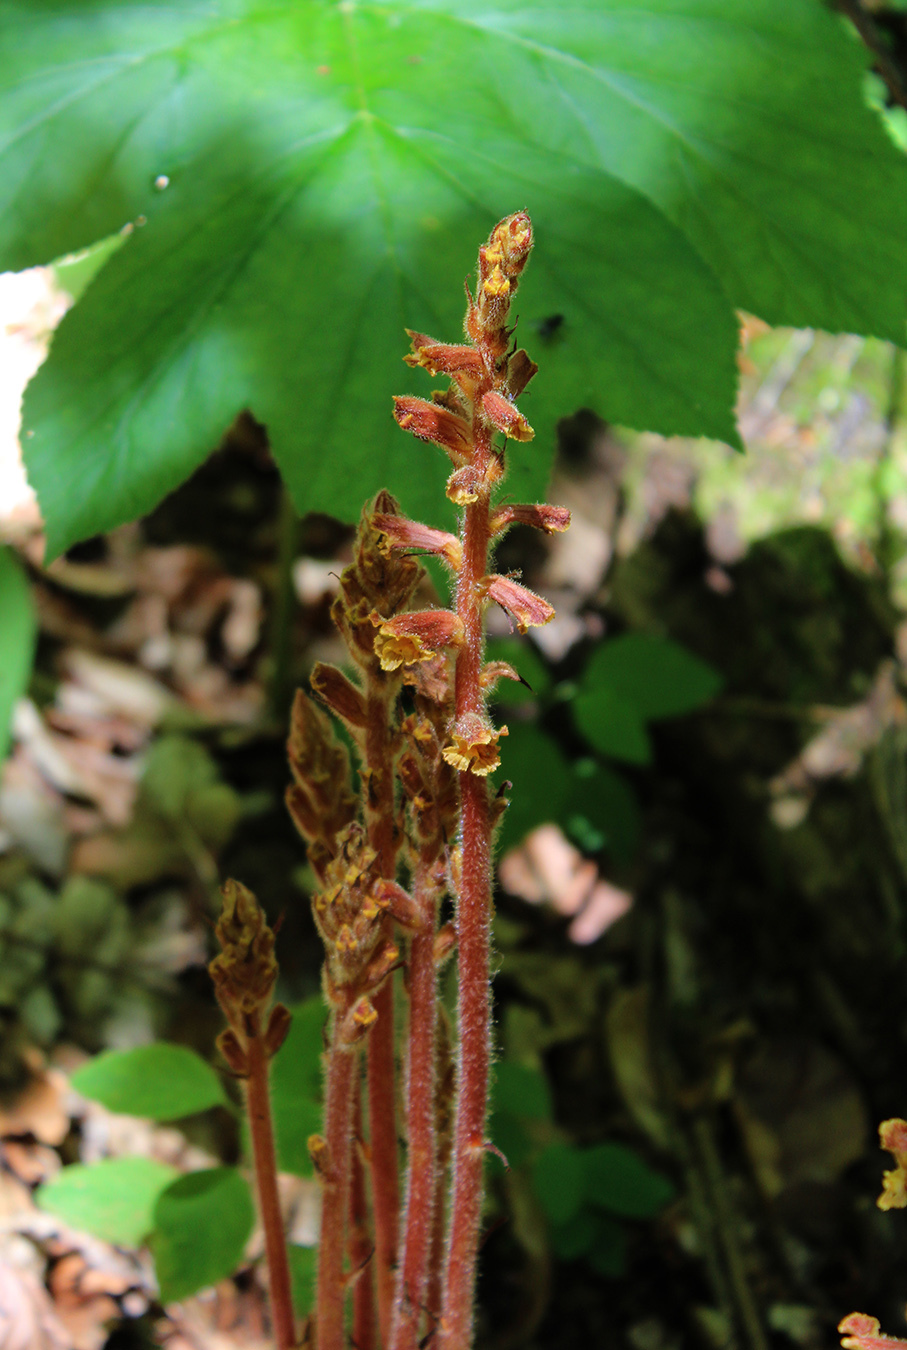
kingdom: Plantae
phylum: Tracheophyta
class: Magnoliopsida
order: Lamiales
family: Orobanchaceae
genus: Orobanche
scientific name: Orobanche laxissima
